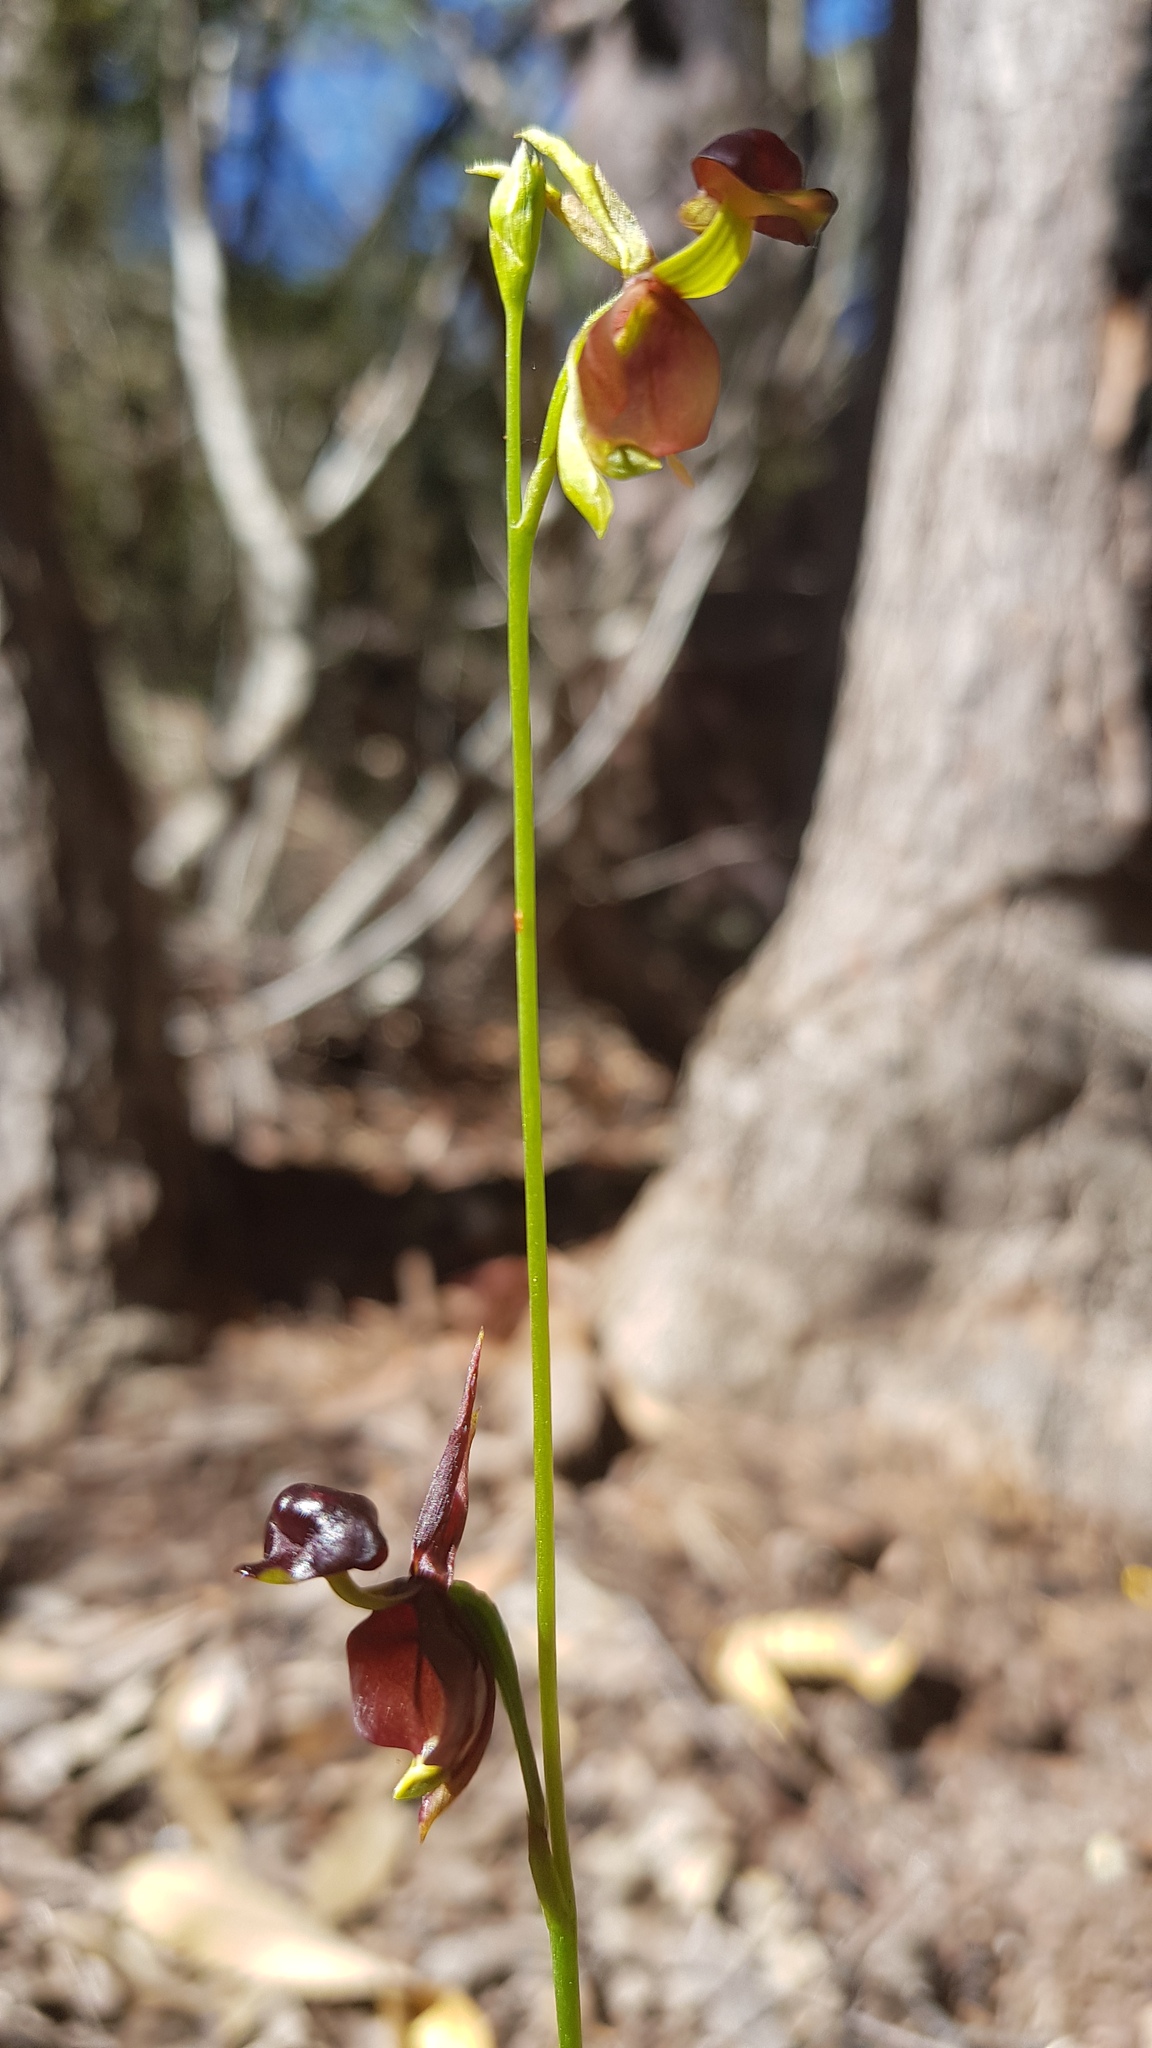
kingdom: Plantae
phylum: Tracheophyta
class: Liliopsida
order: Asparagales
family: Orchidaceae
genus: Caleana
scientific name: Caleana major
